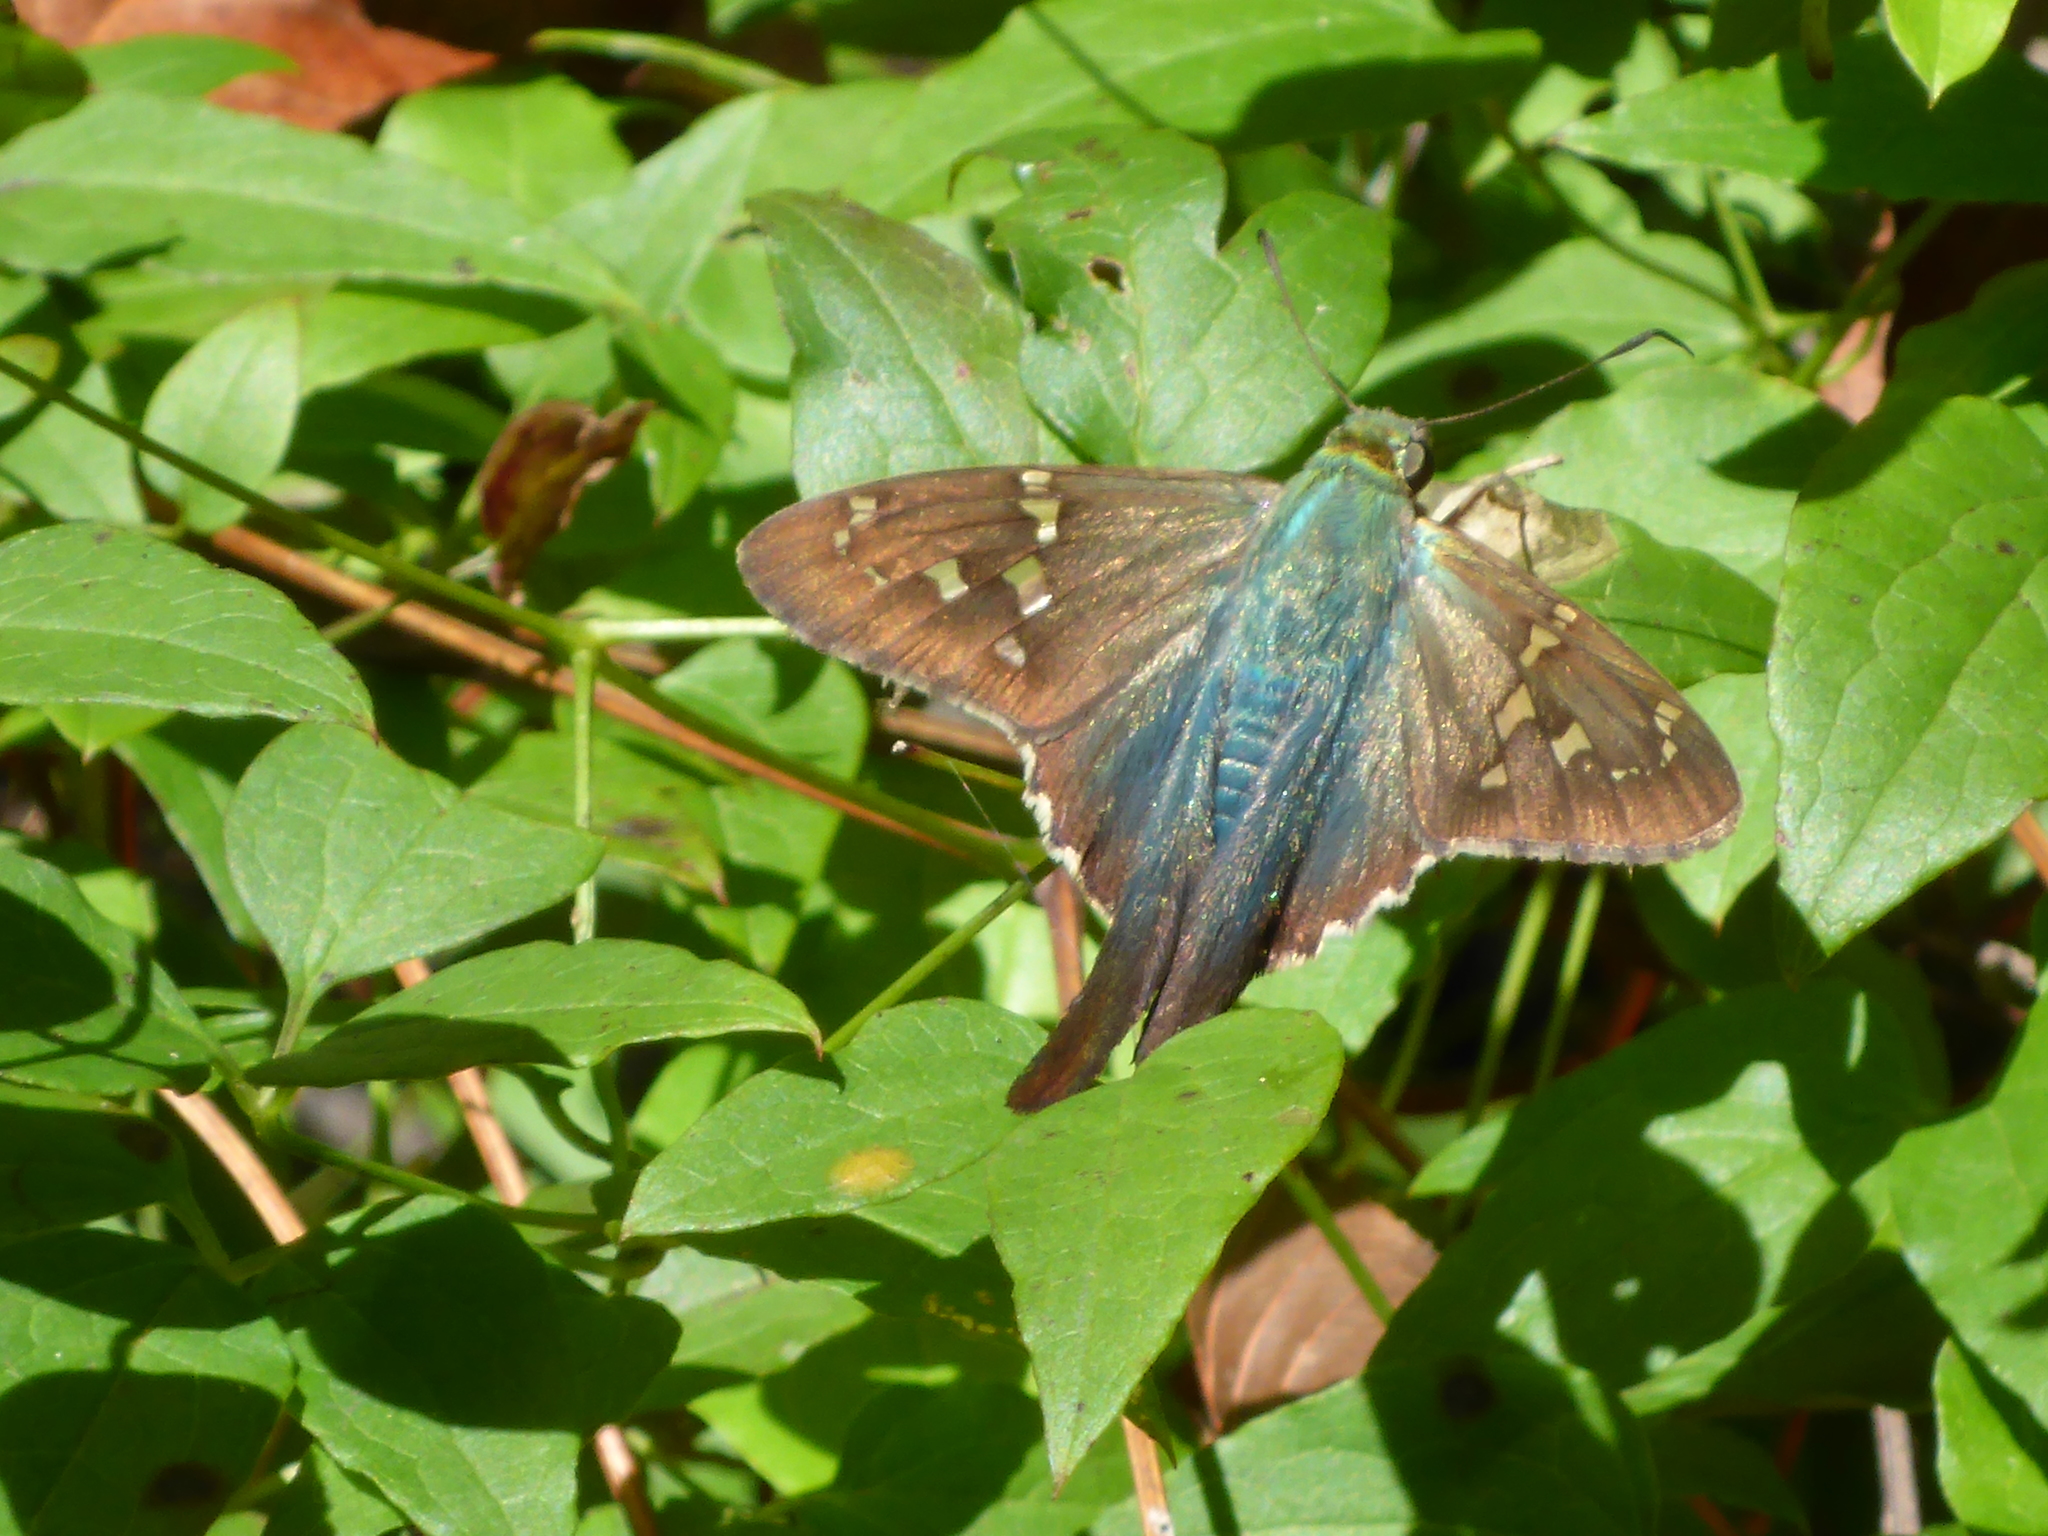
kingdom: Animalia
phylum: Arthropoda
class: Insecta
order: Lepidoptera
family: Hesperiidae
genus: Urbanus
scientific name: Urbanus proteus
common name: Long-tailed skipper
